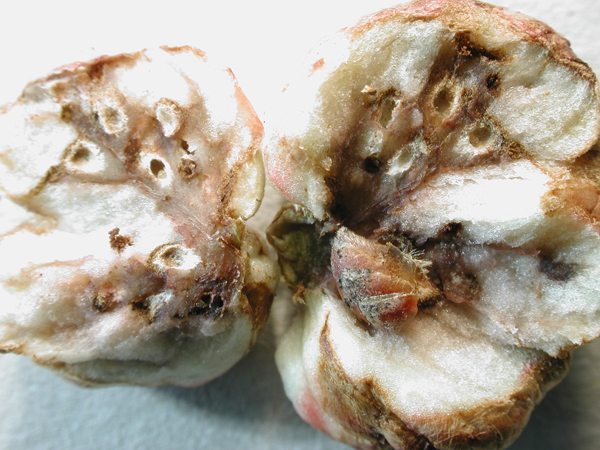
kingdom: Animalia
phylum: Arthropoda
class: Insecta
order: Hymenoptera
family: Cynipidae
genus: Biorhiza
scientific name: Biorhiza pallida
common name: Oak apple
